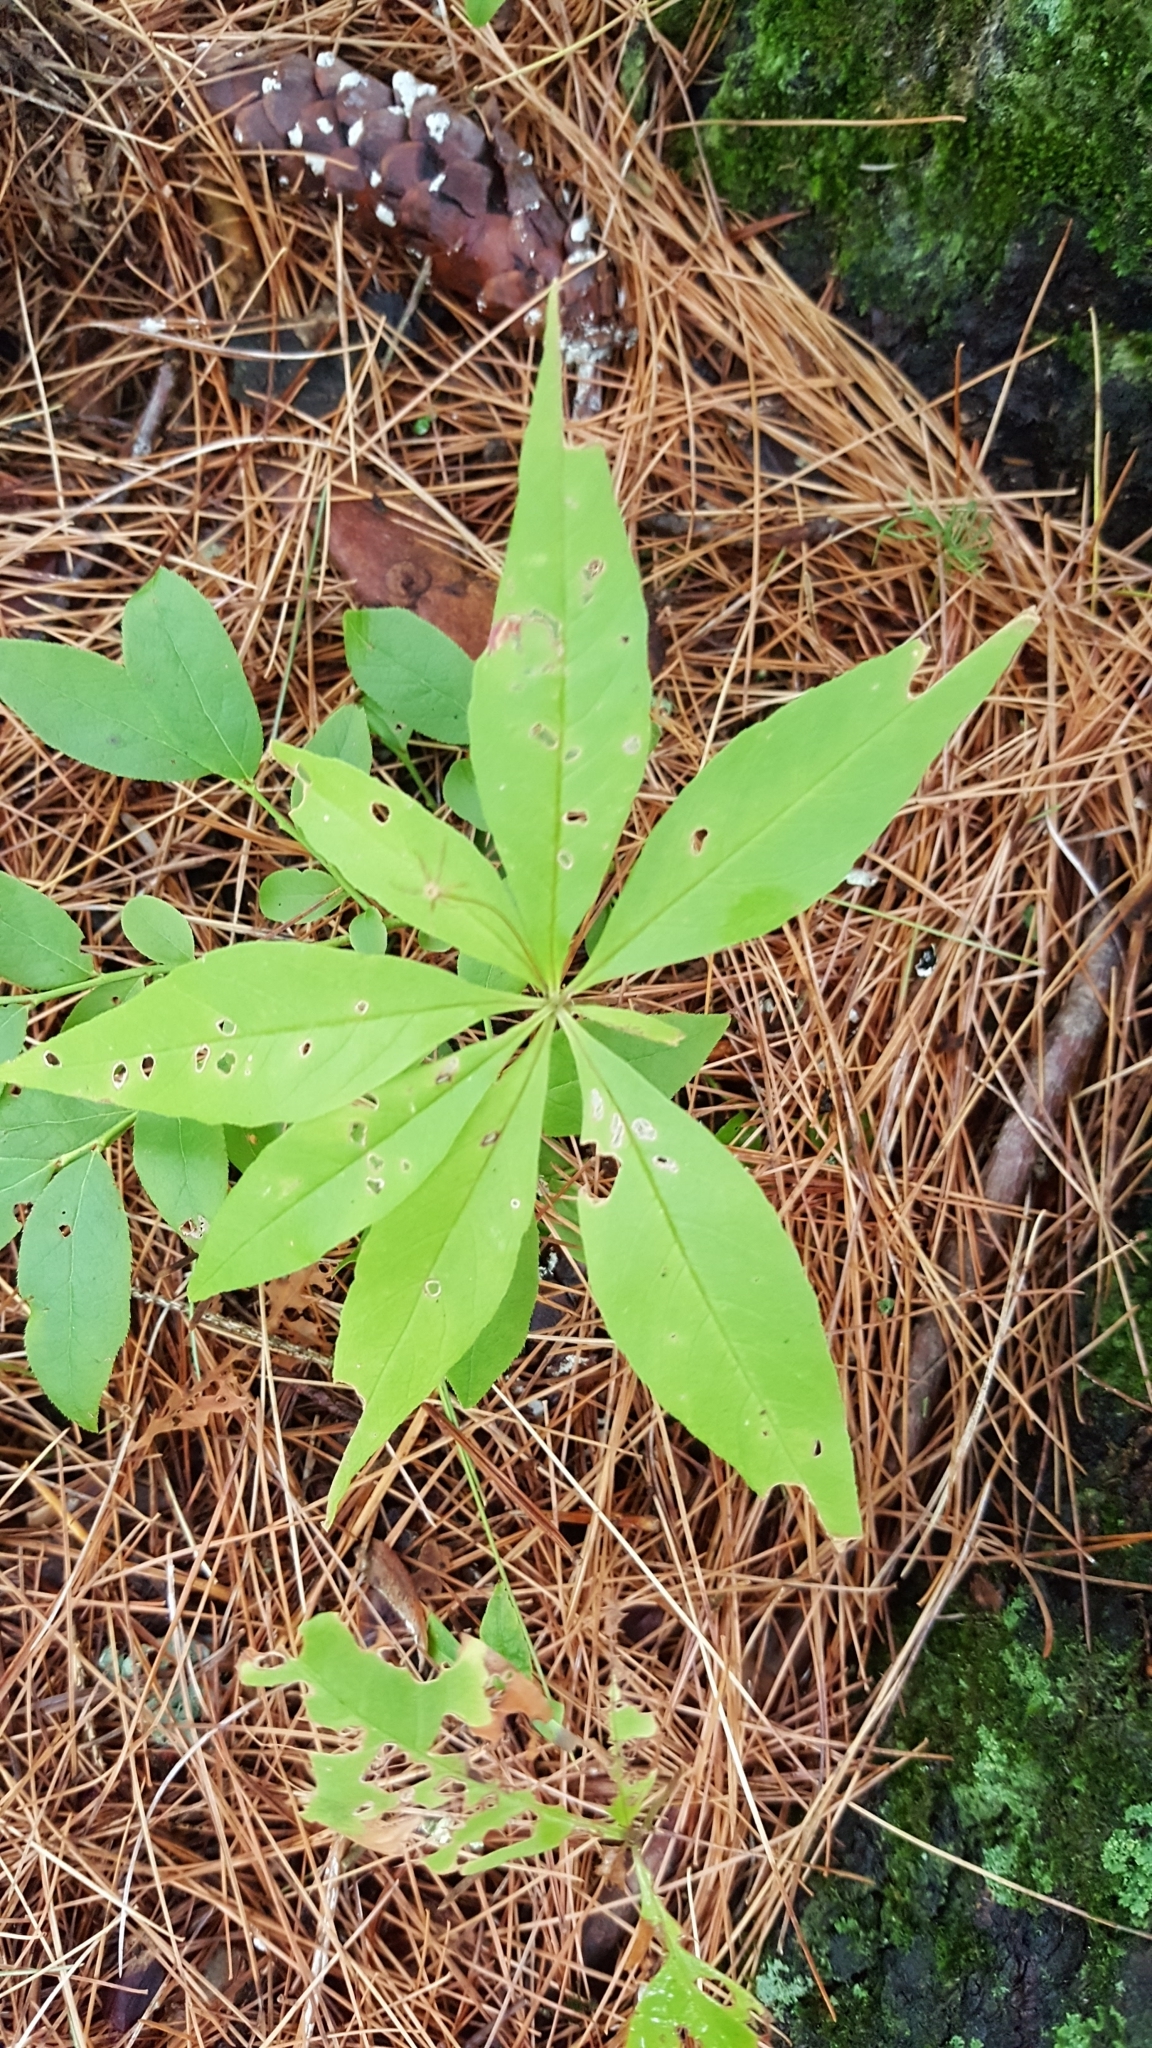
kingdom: Plantae
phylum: Tracheophyta
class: Magnoliopsida
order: Ericales
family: Primulaceae
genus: Lysimachia
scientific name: Lysimachia borealis
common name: American starflower
